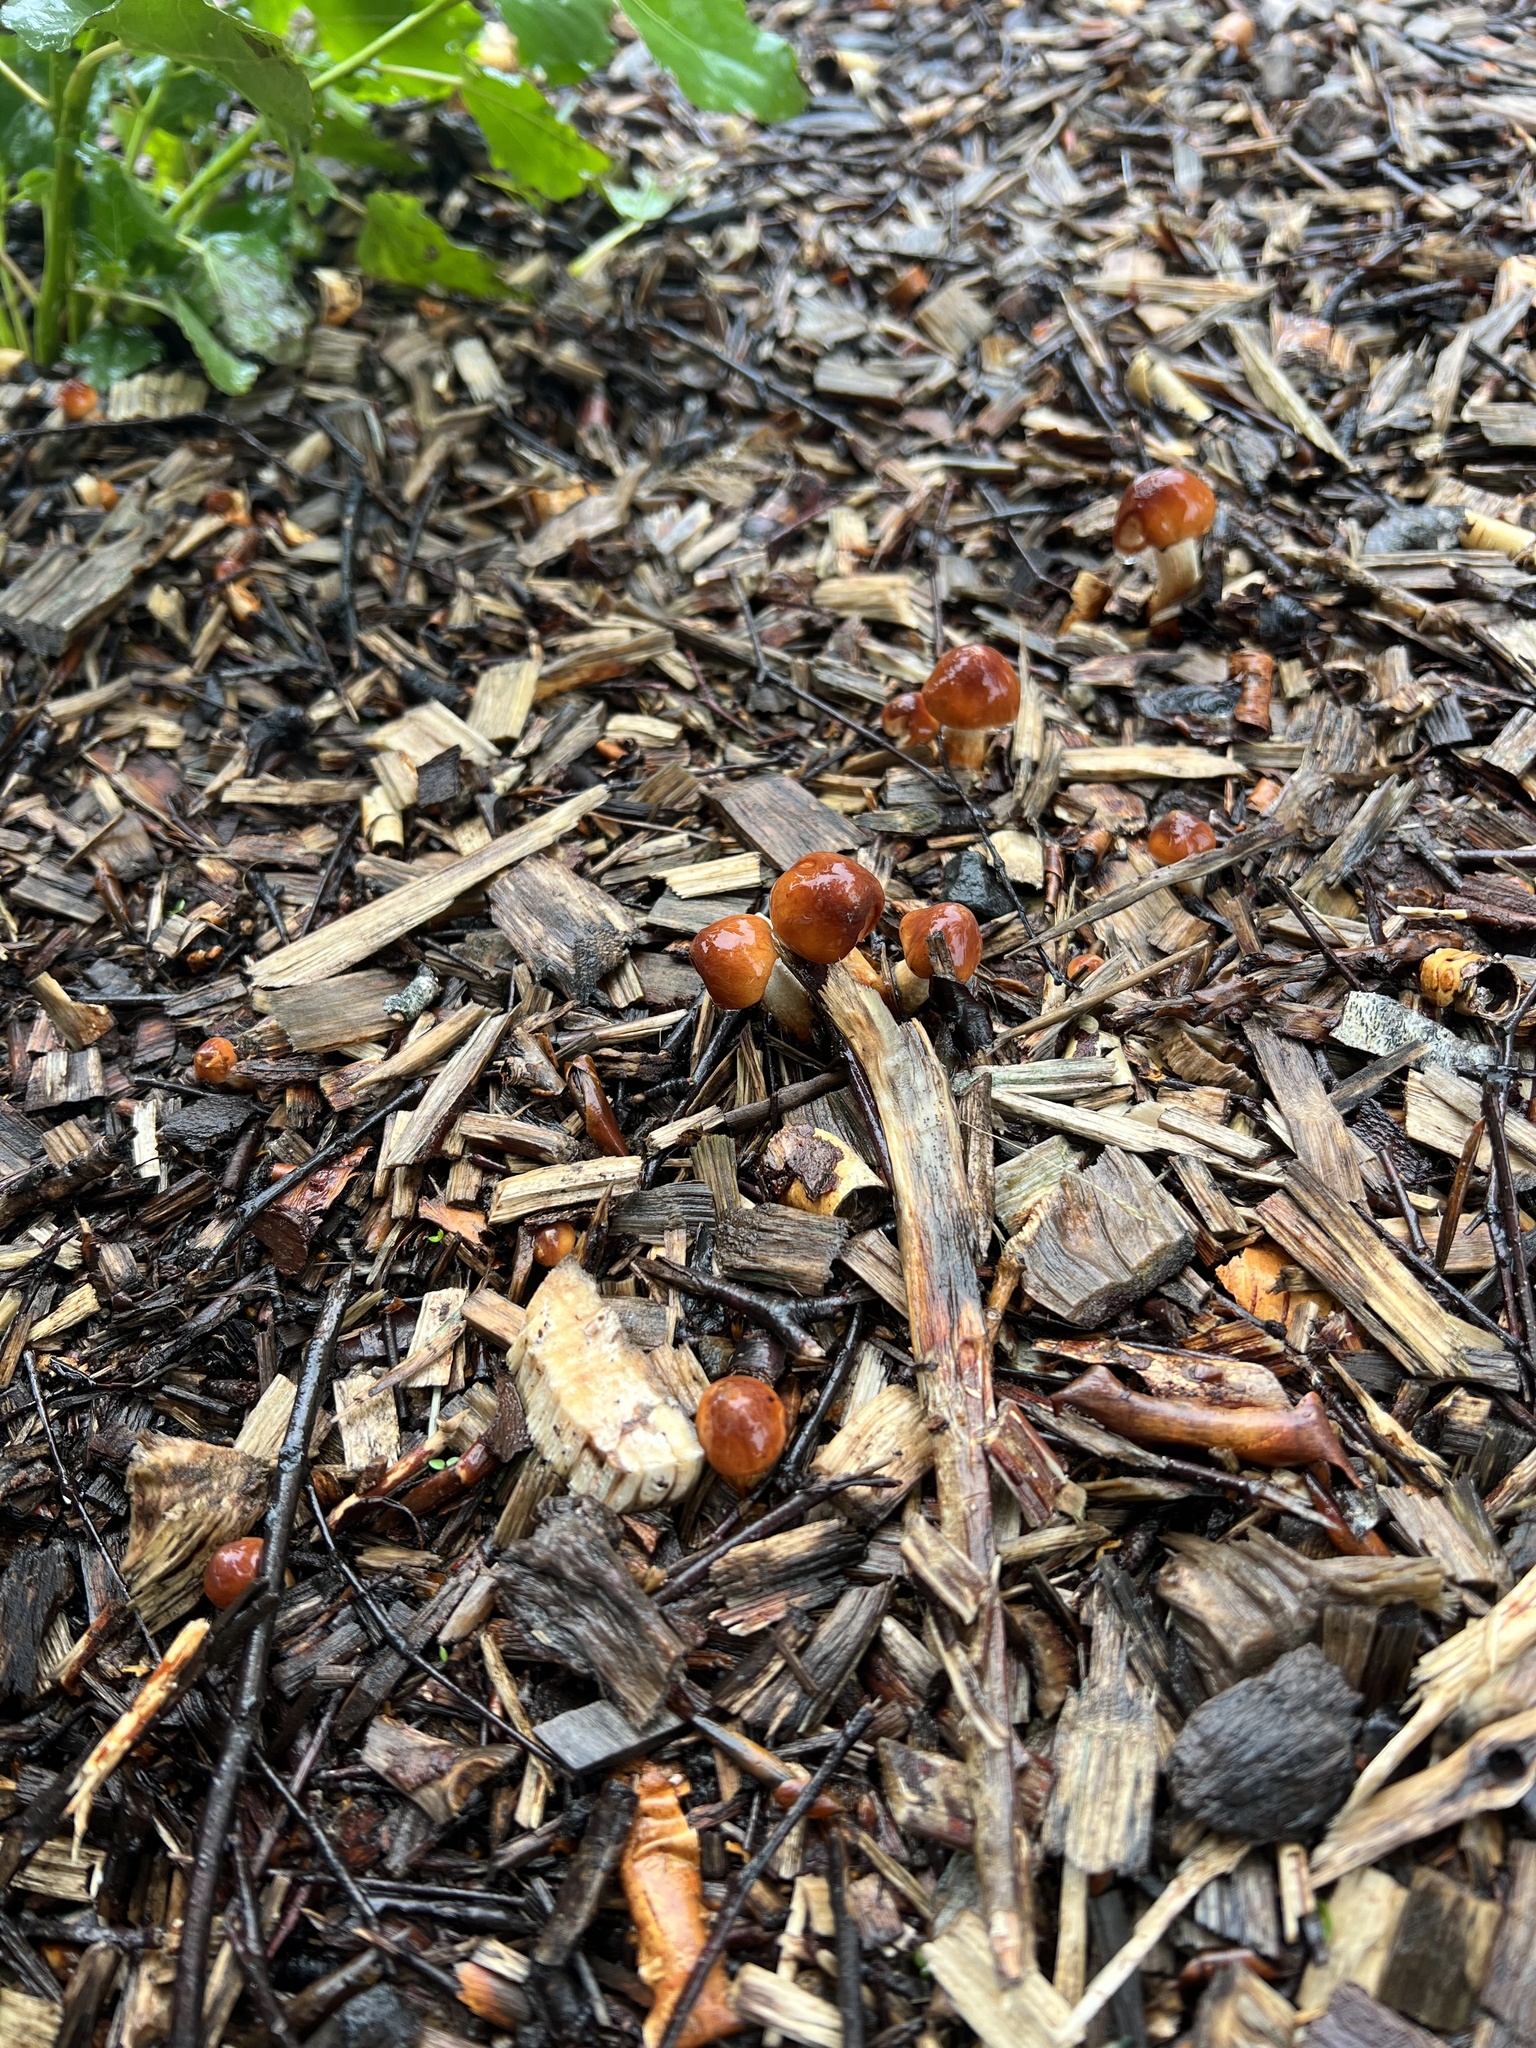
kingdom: Fungi
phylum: Basidiomycota
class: Agaricomycetes
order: Agaricales
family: Strophariaceae
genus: Leratiomyces
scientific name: Leratiomyces ceres
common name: Redlead roundhead
